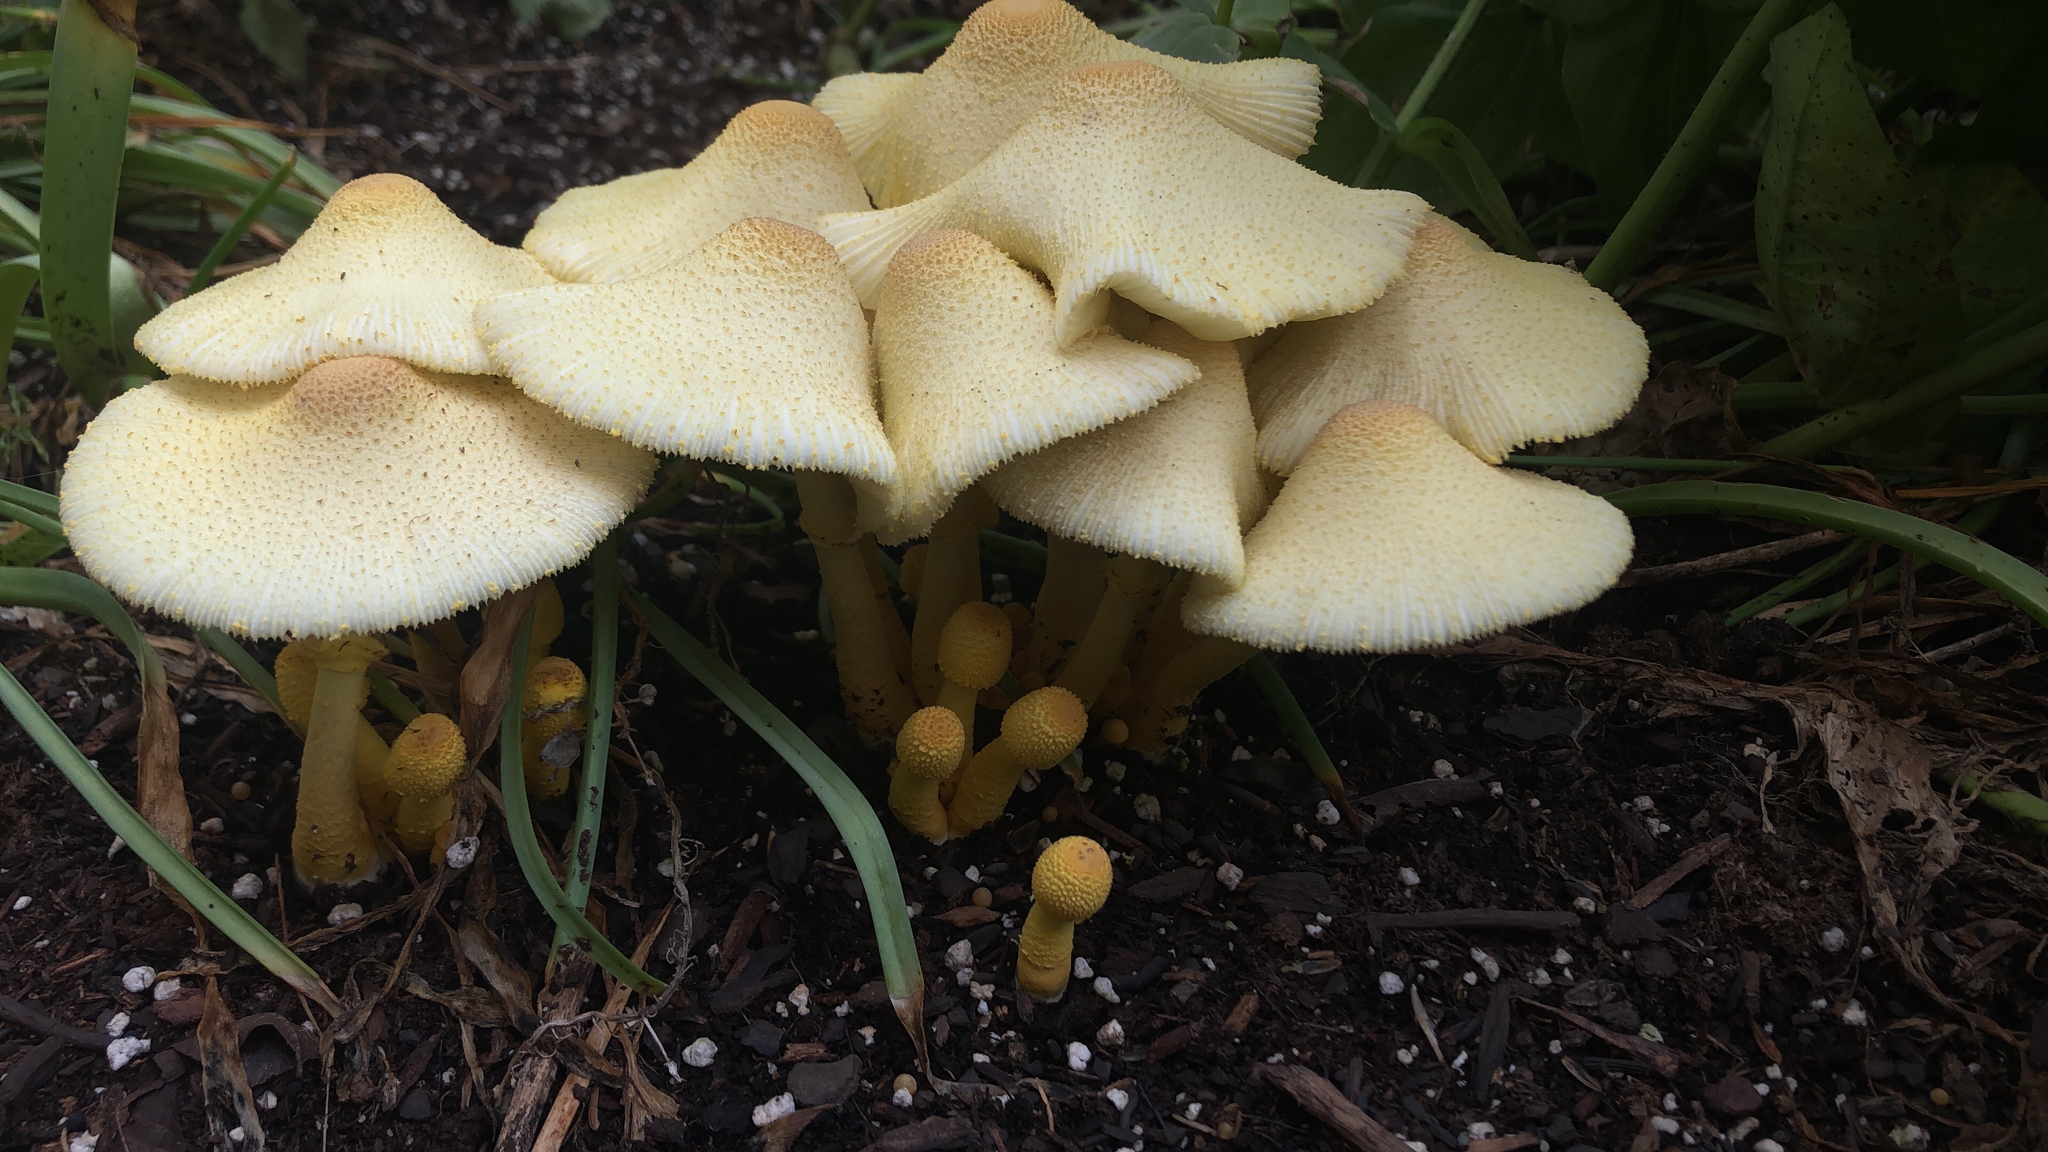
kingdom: Fungi
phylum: Basidiomycota
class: Agaricomycetes
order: Agaricales
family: Agaricaceae
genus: Leucocoprinus
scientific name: Leucocoprinus birnbaumii
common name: Plantpot dapperling
